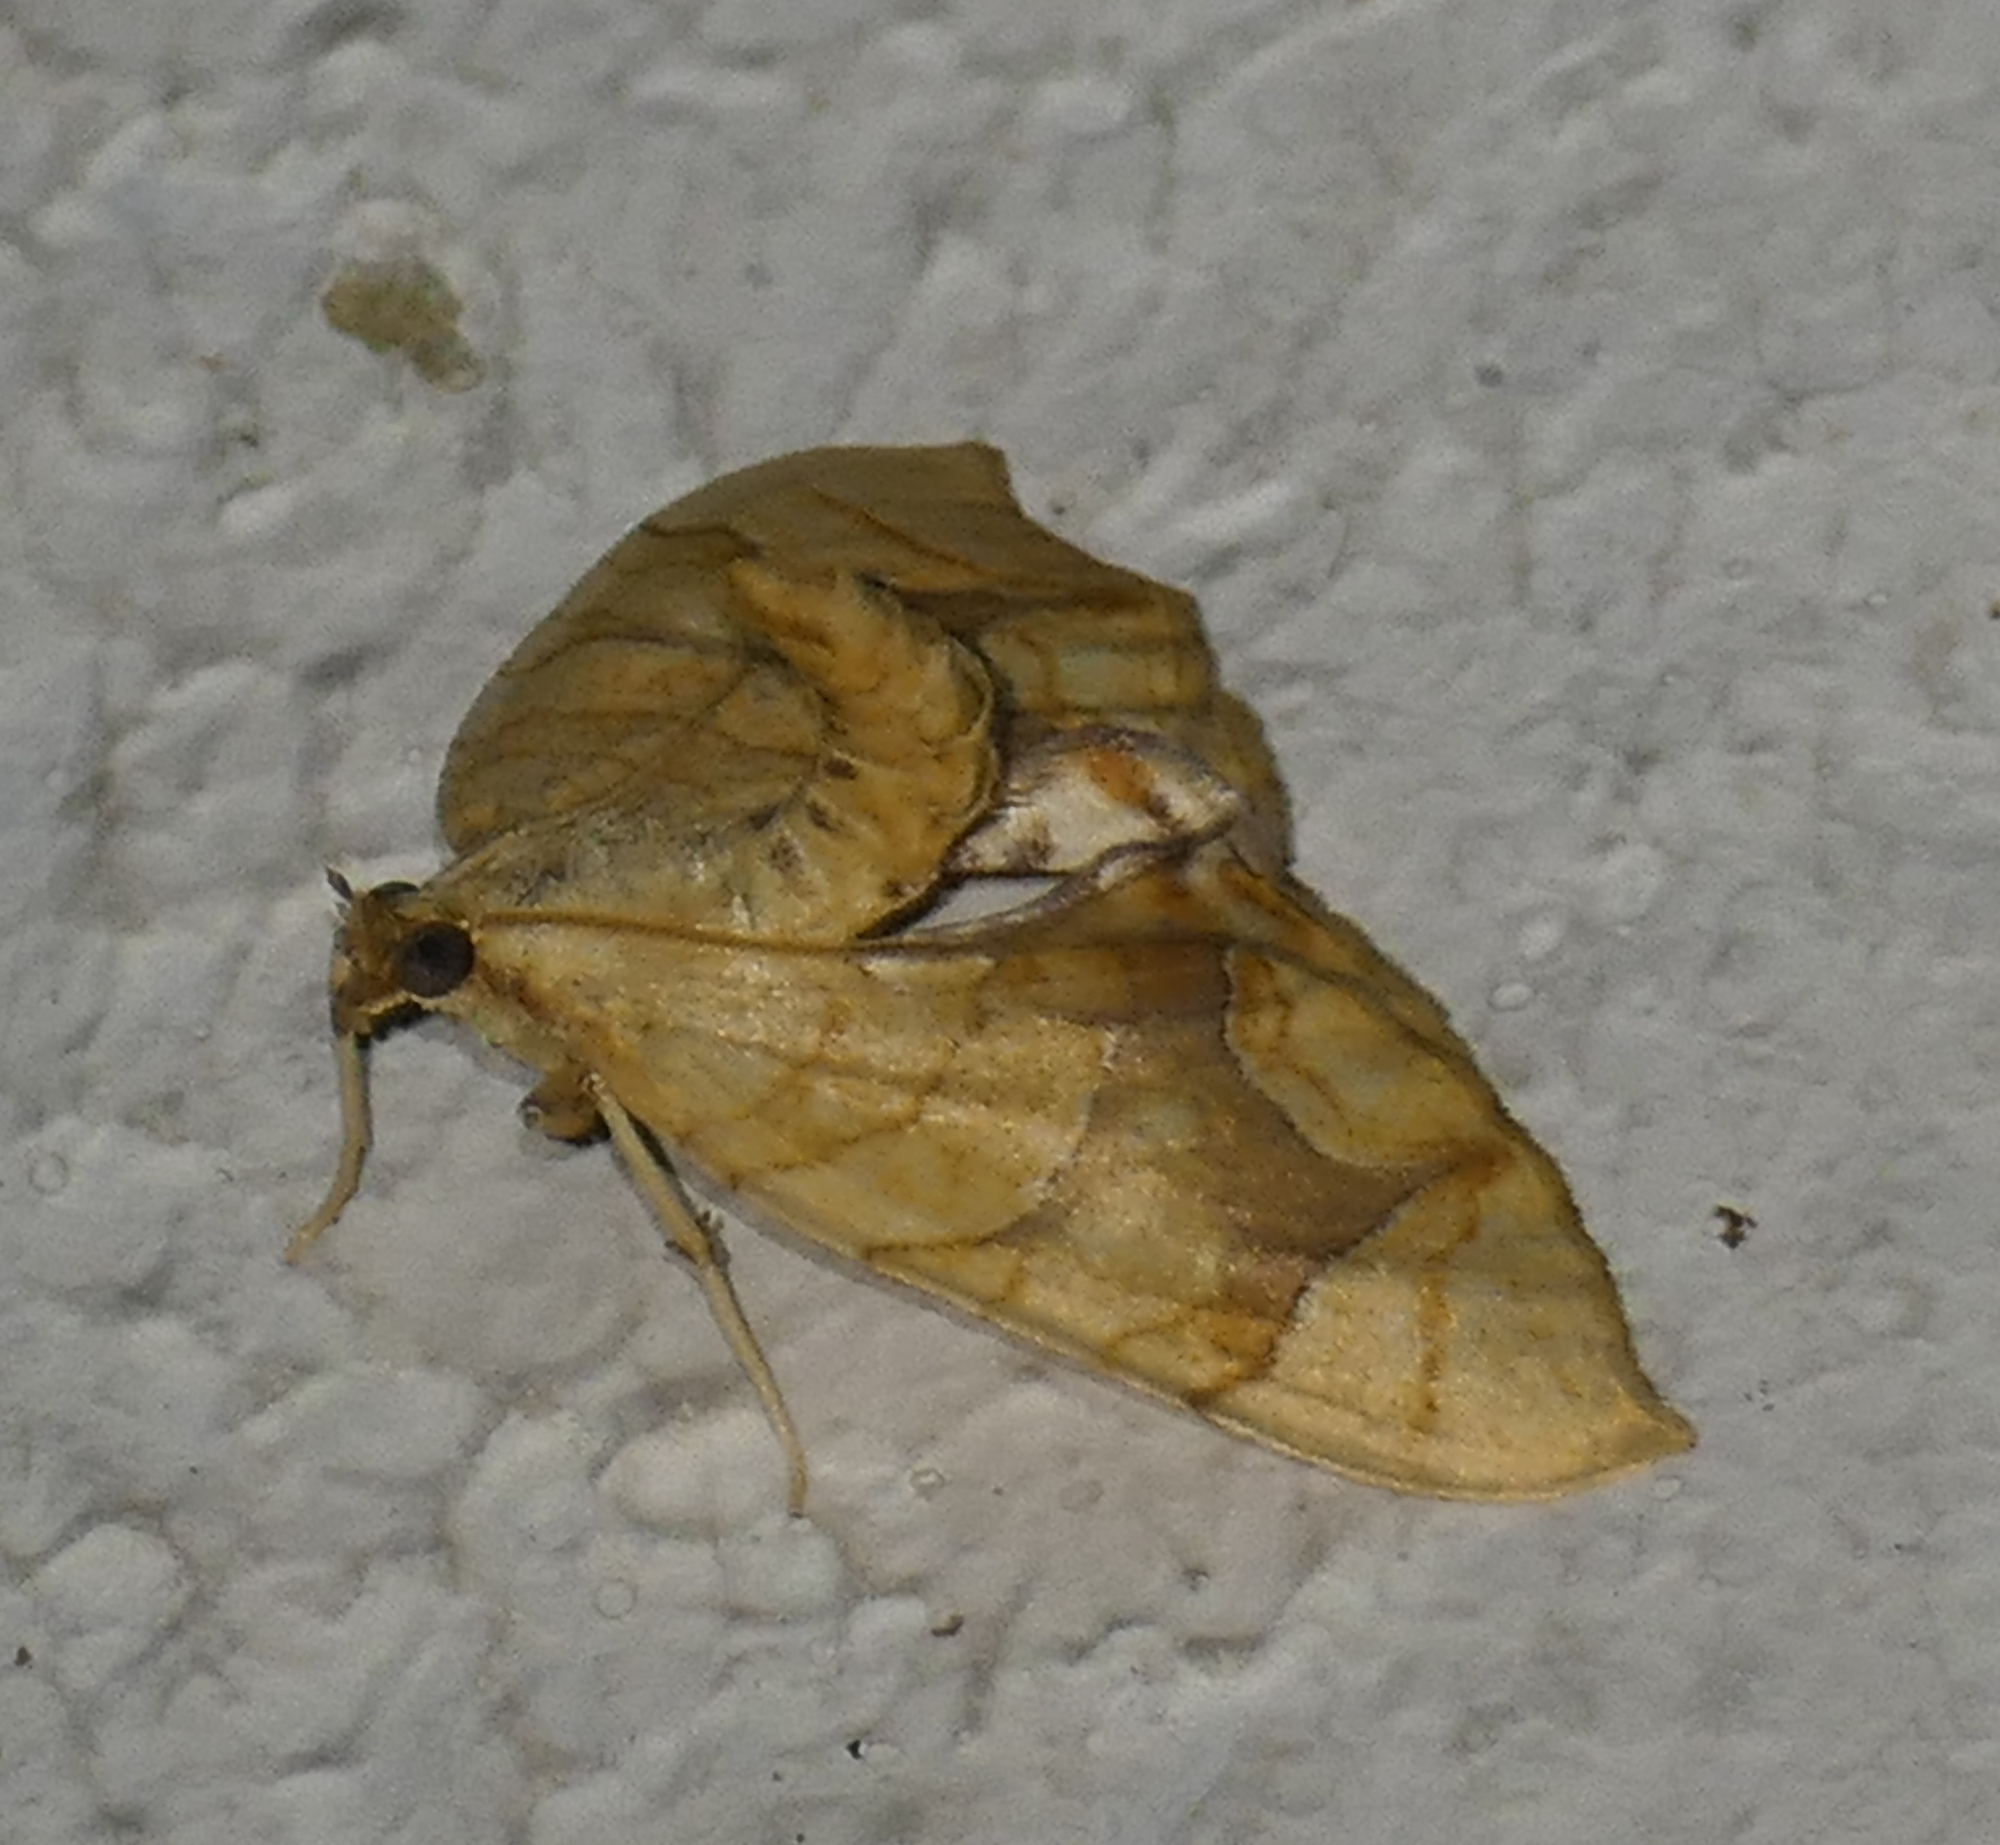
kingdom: Animalia
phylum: Arthropoda
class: Insecta
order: Lepidoptera
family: Geometridae
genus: Eulithis
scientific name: Eulithis
